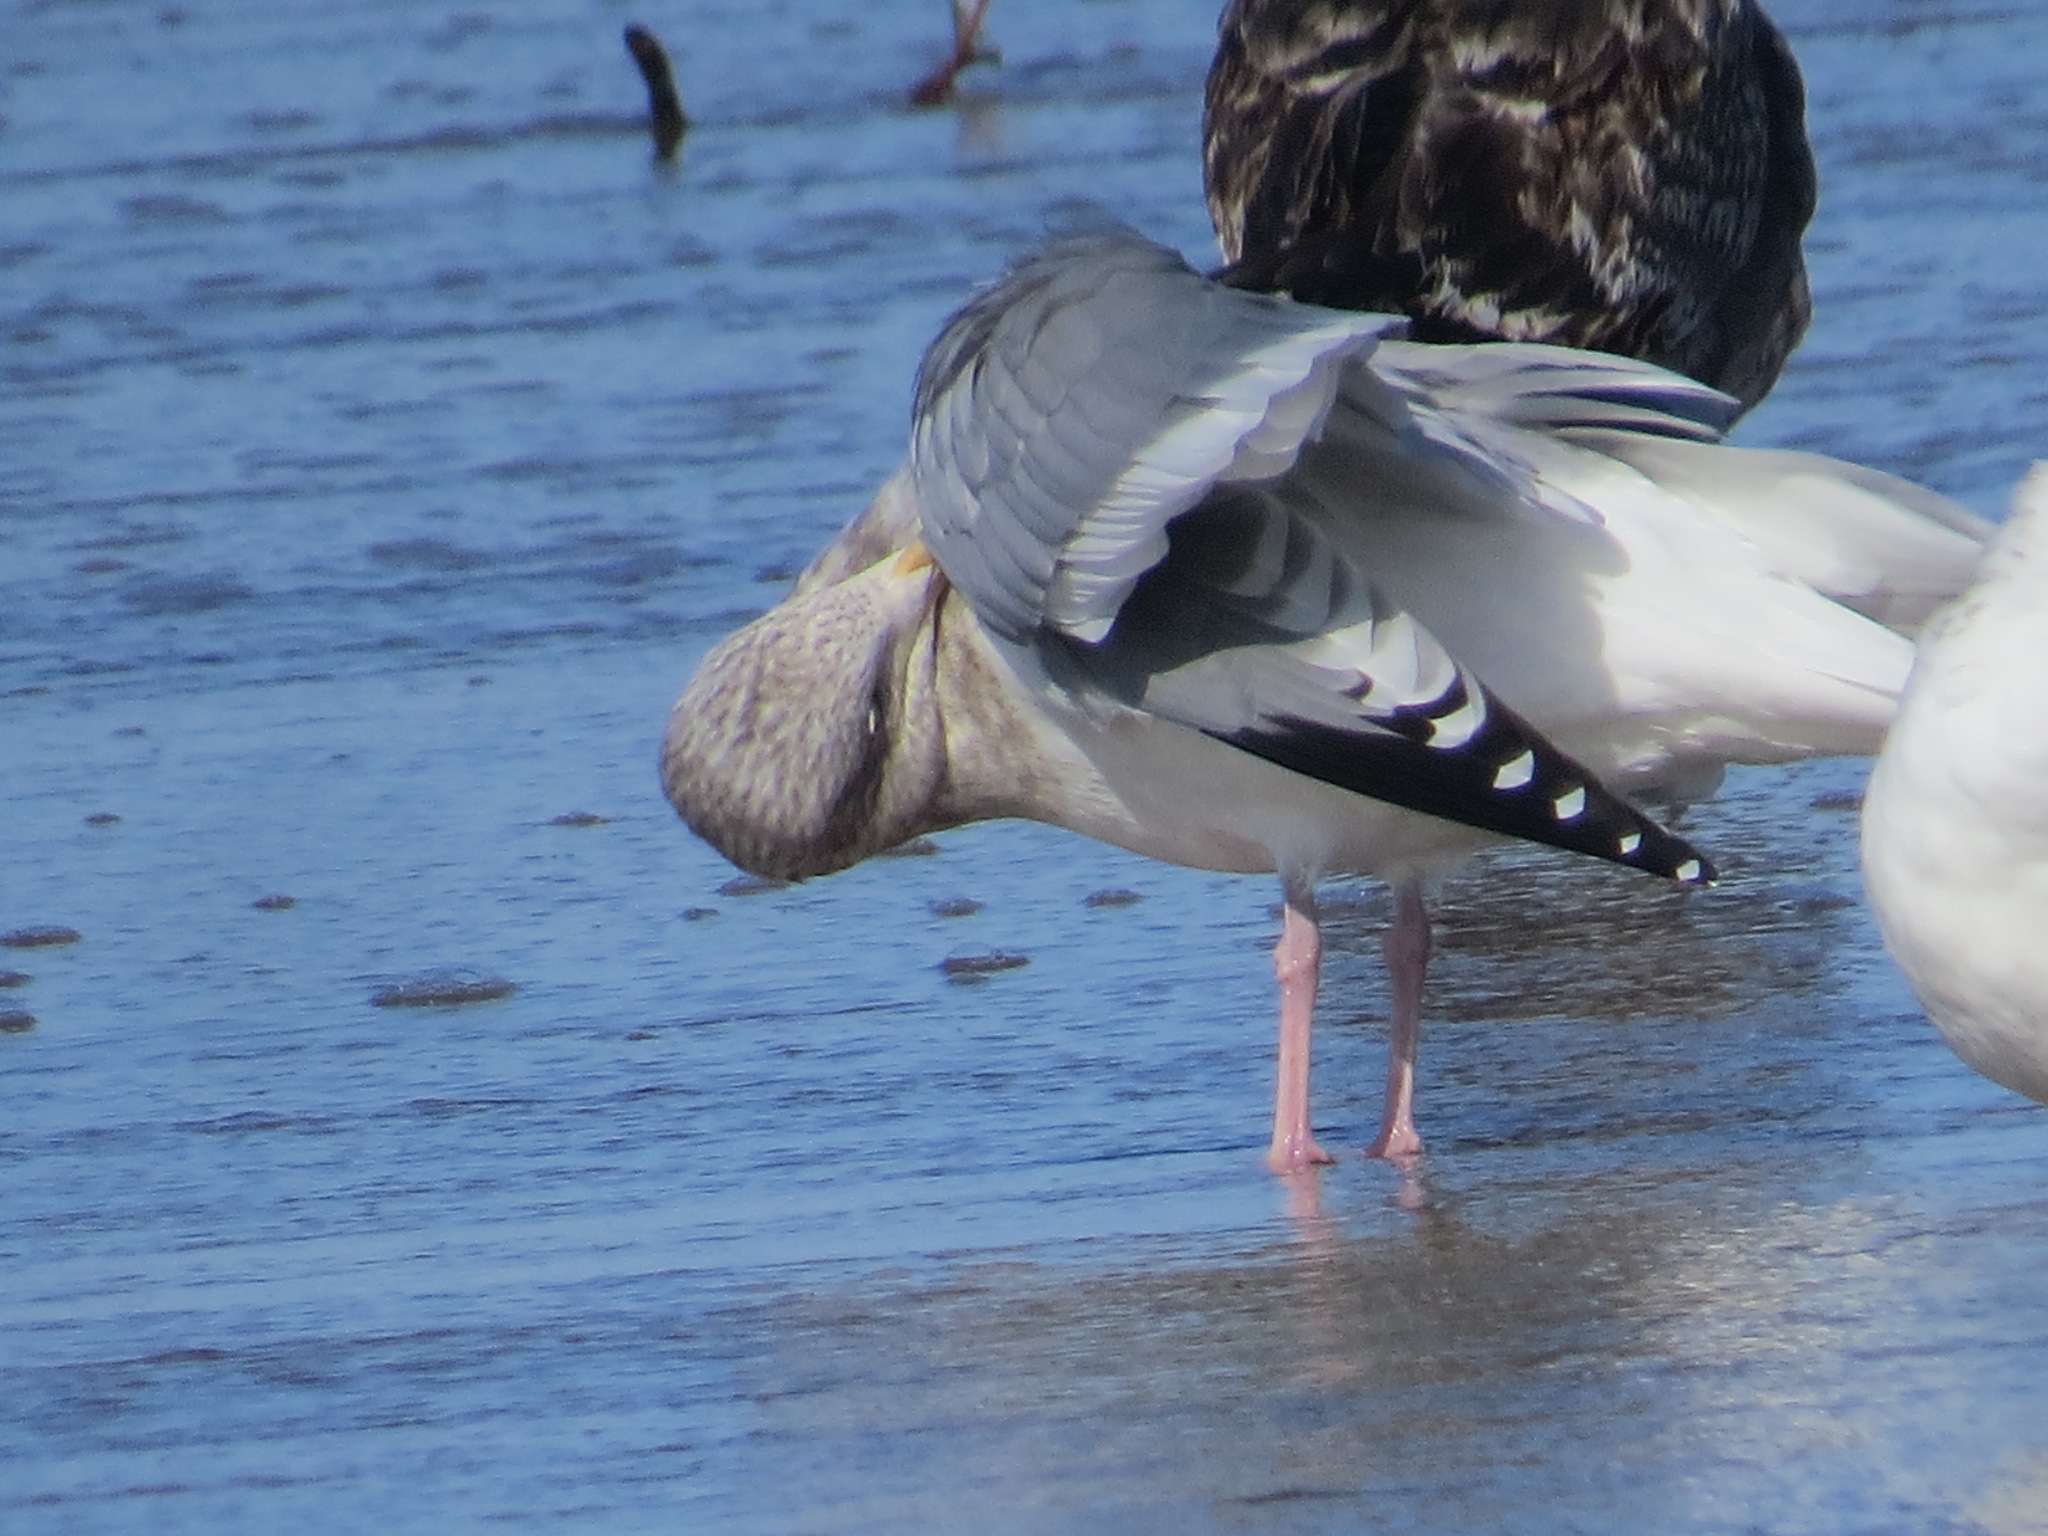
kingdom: Animalia
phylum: Chordata
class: Aves
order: Charadriiformes
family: Laridae
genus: Larus
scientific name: Larus argentatus
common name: Herring gull
